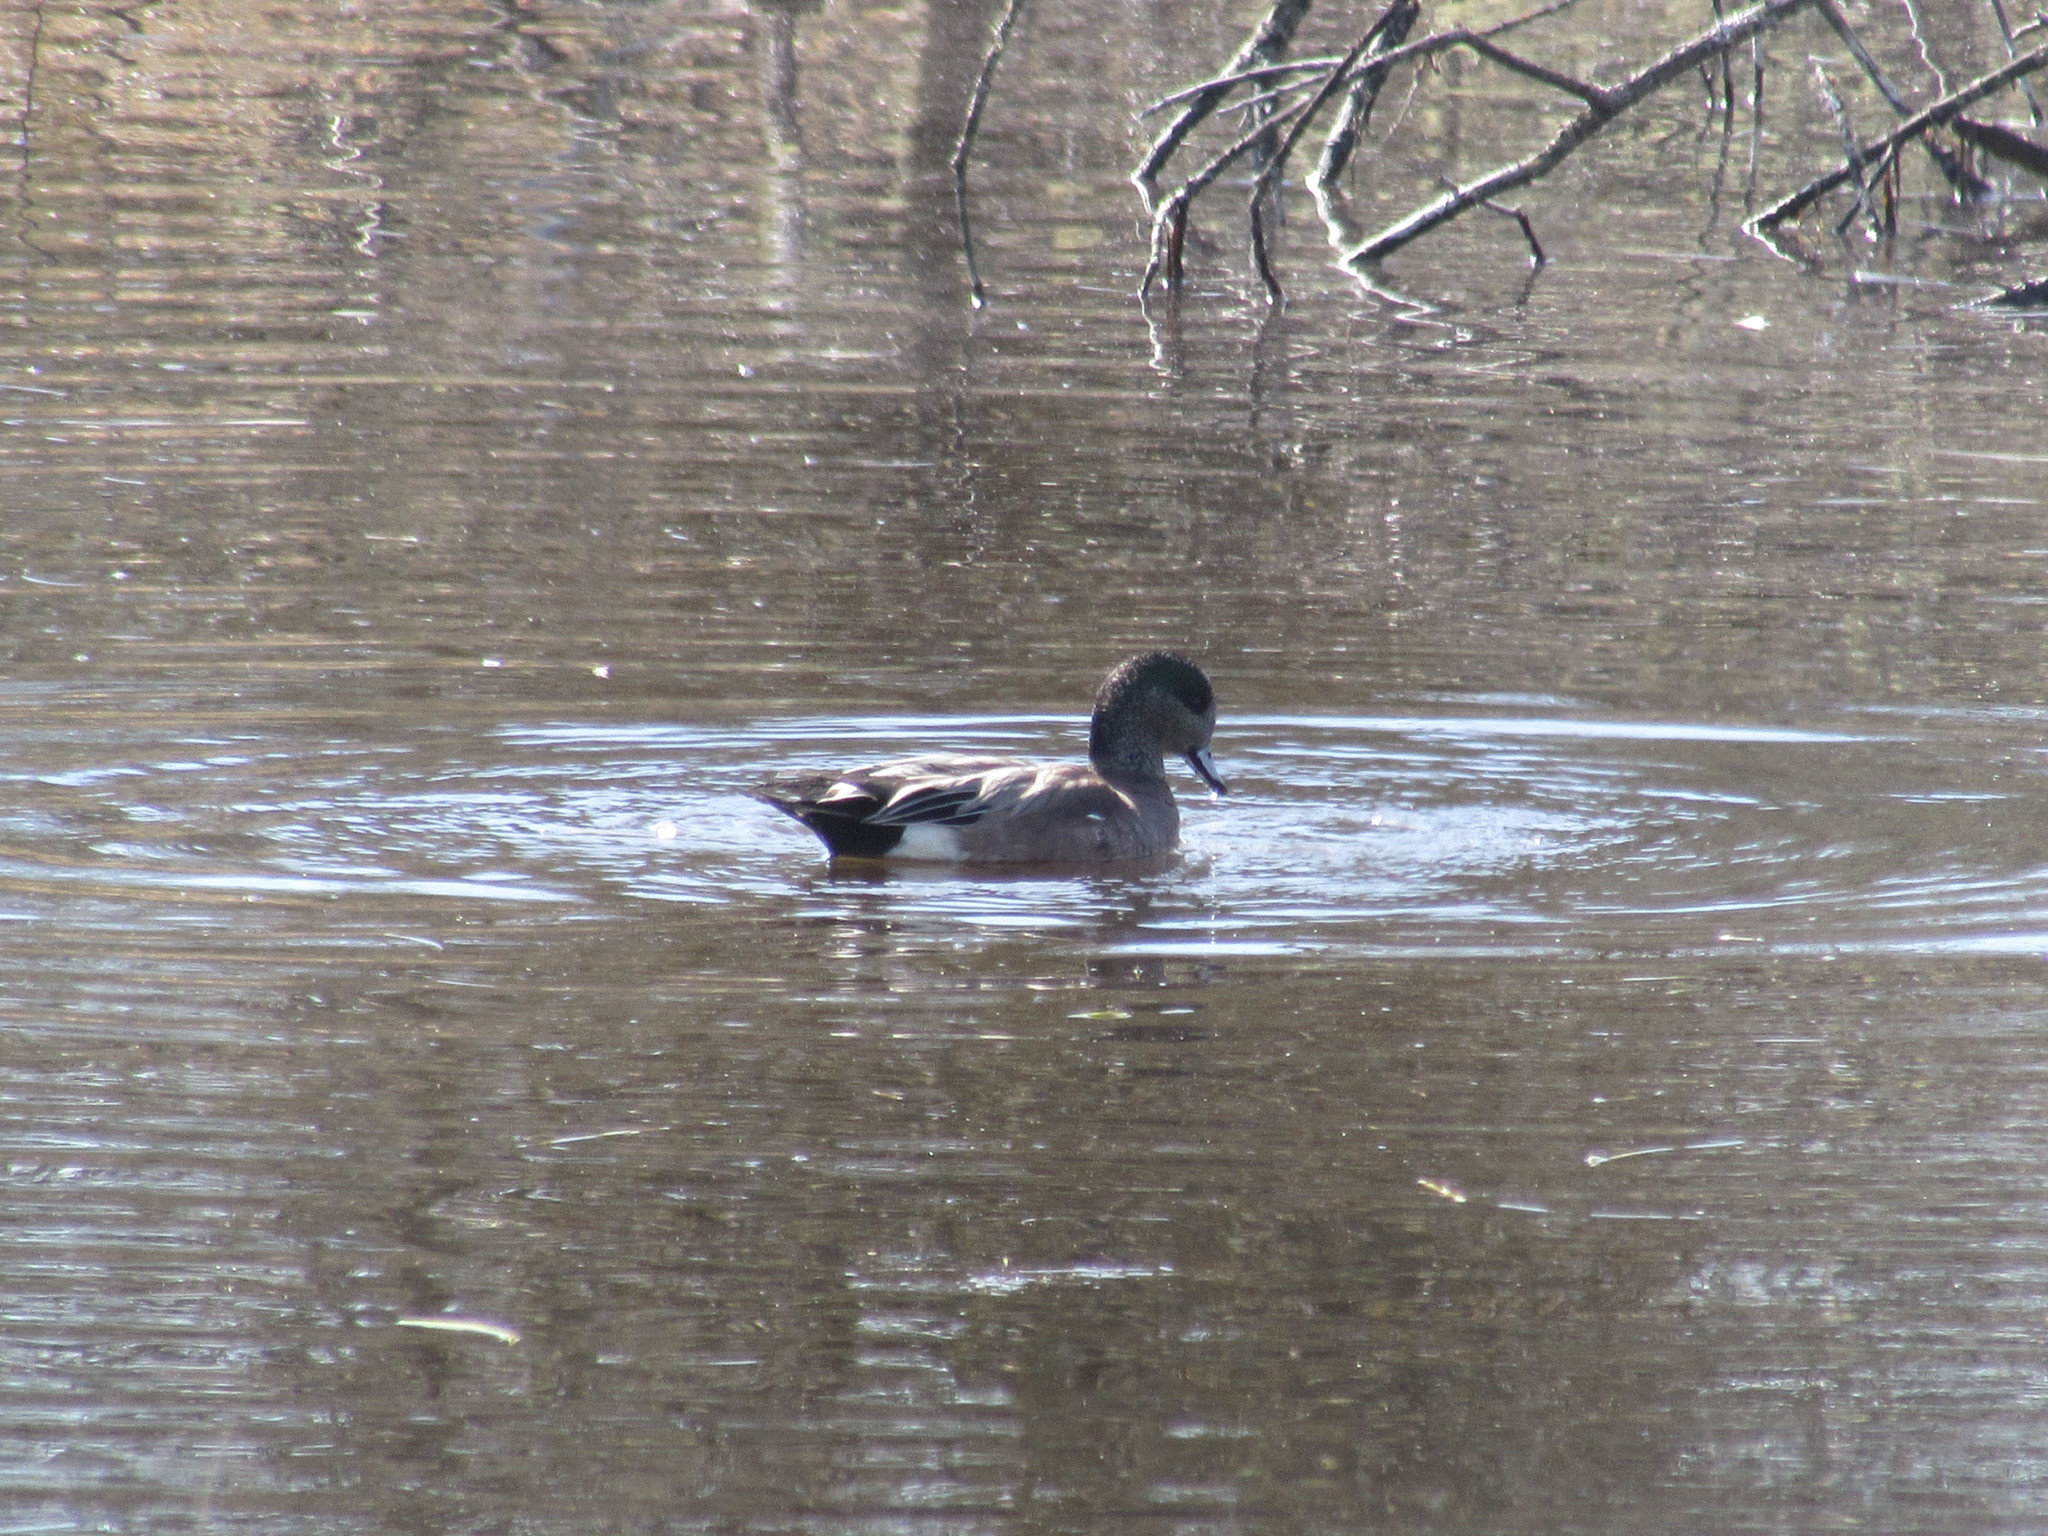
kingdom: Animalia
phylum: Chordata
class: Aves
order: Anseriformes
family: Anatidae
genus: Mareca
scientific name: Mareca americana
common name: American wigeon
